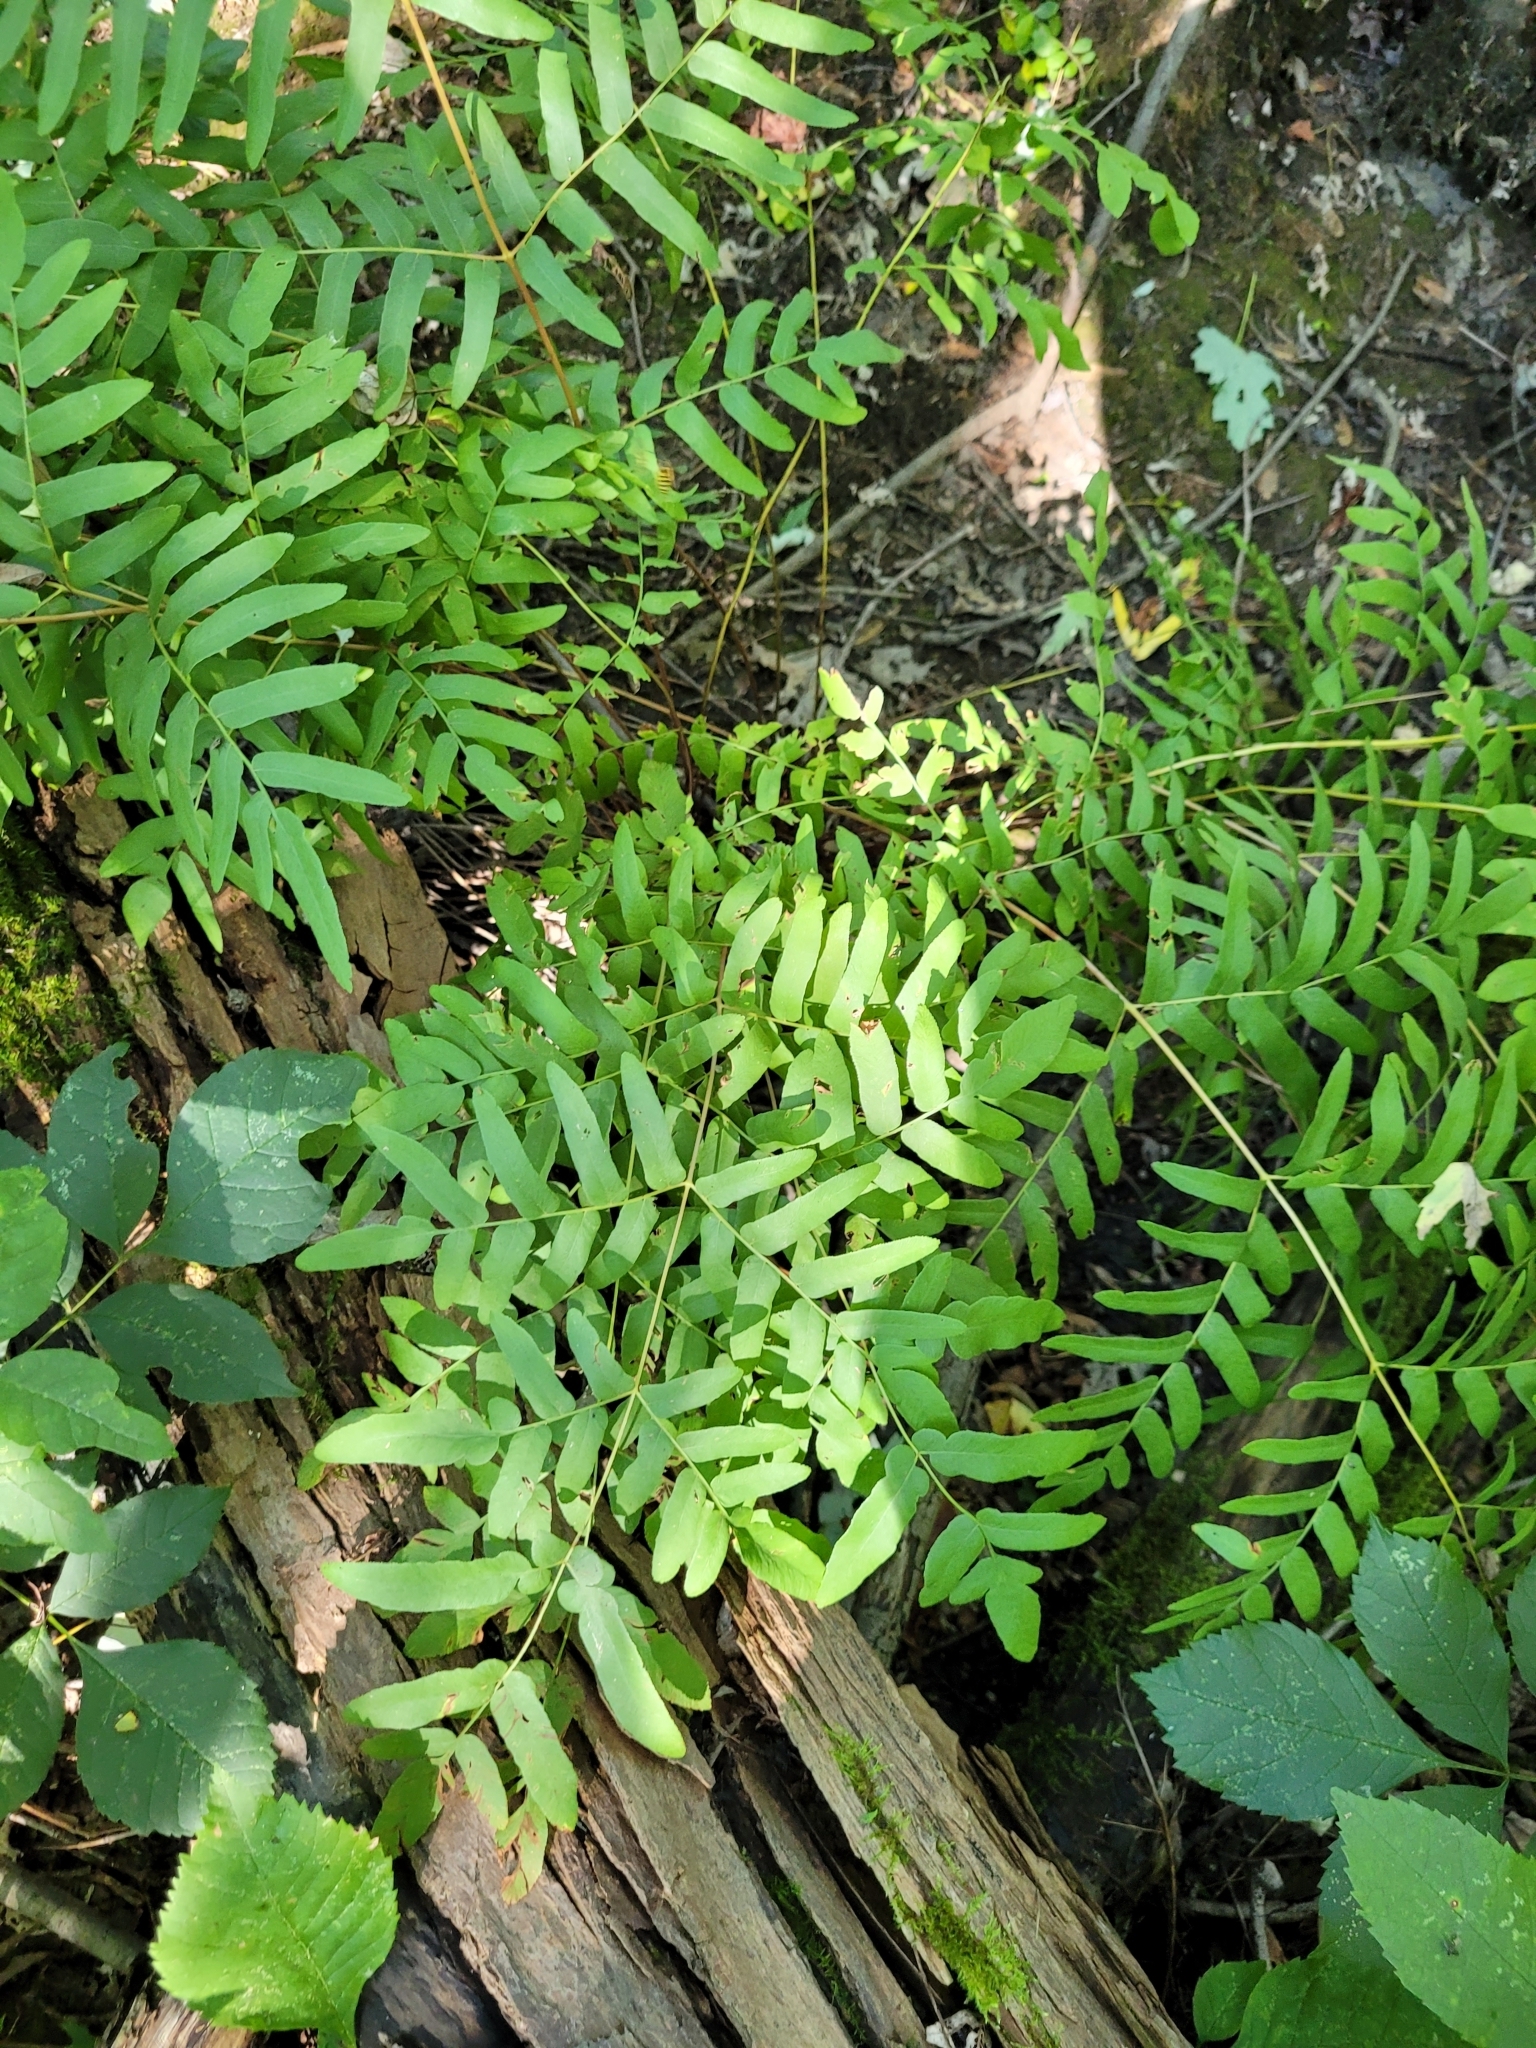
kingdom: Plantae
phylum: Tracheophyta
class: Polypodiopsida
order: Osmundales
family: Osmundaceae
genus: Osmunda
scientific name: Osmunda spectabilis
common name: American royal fern
